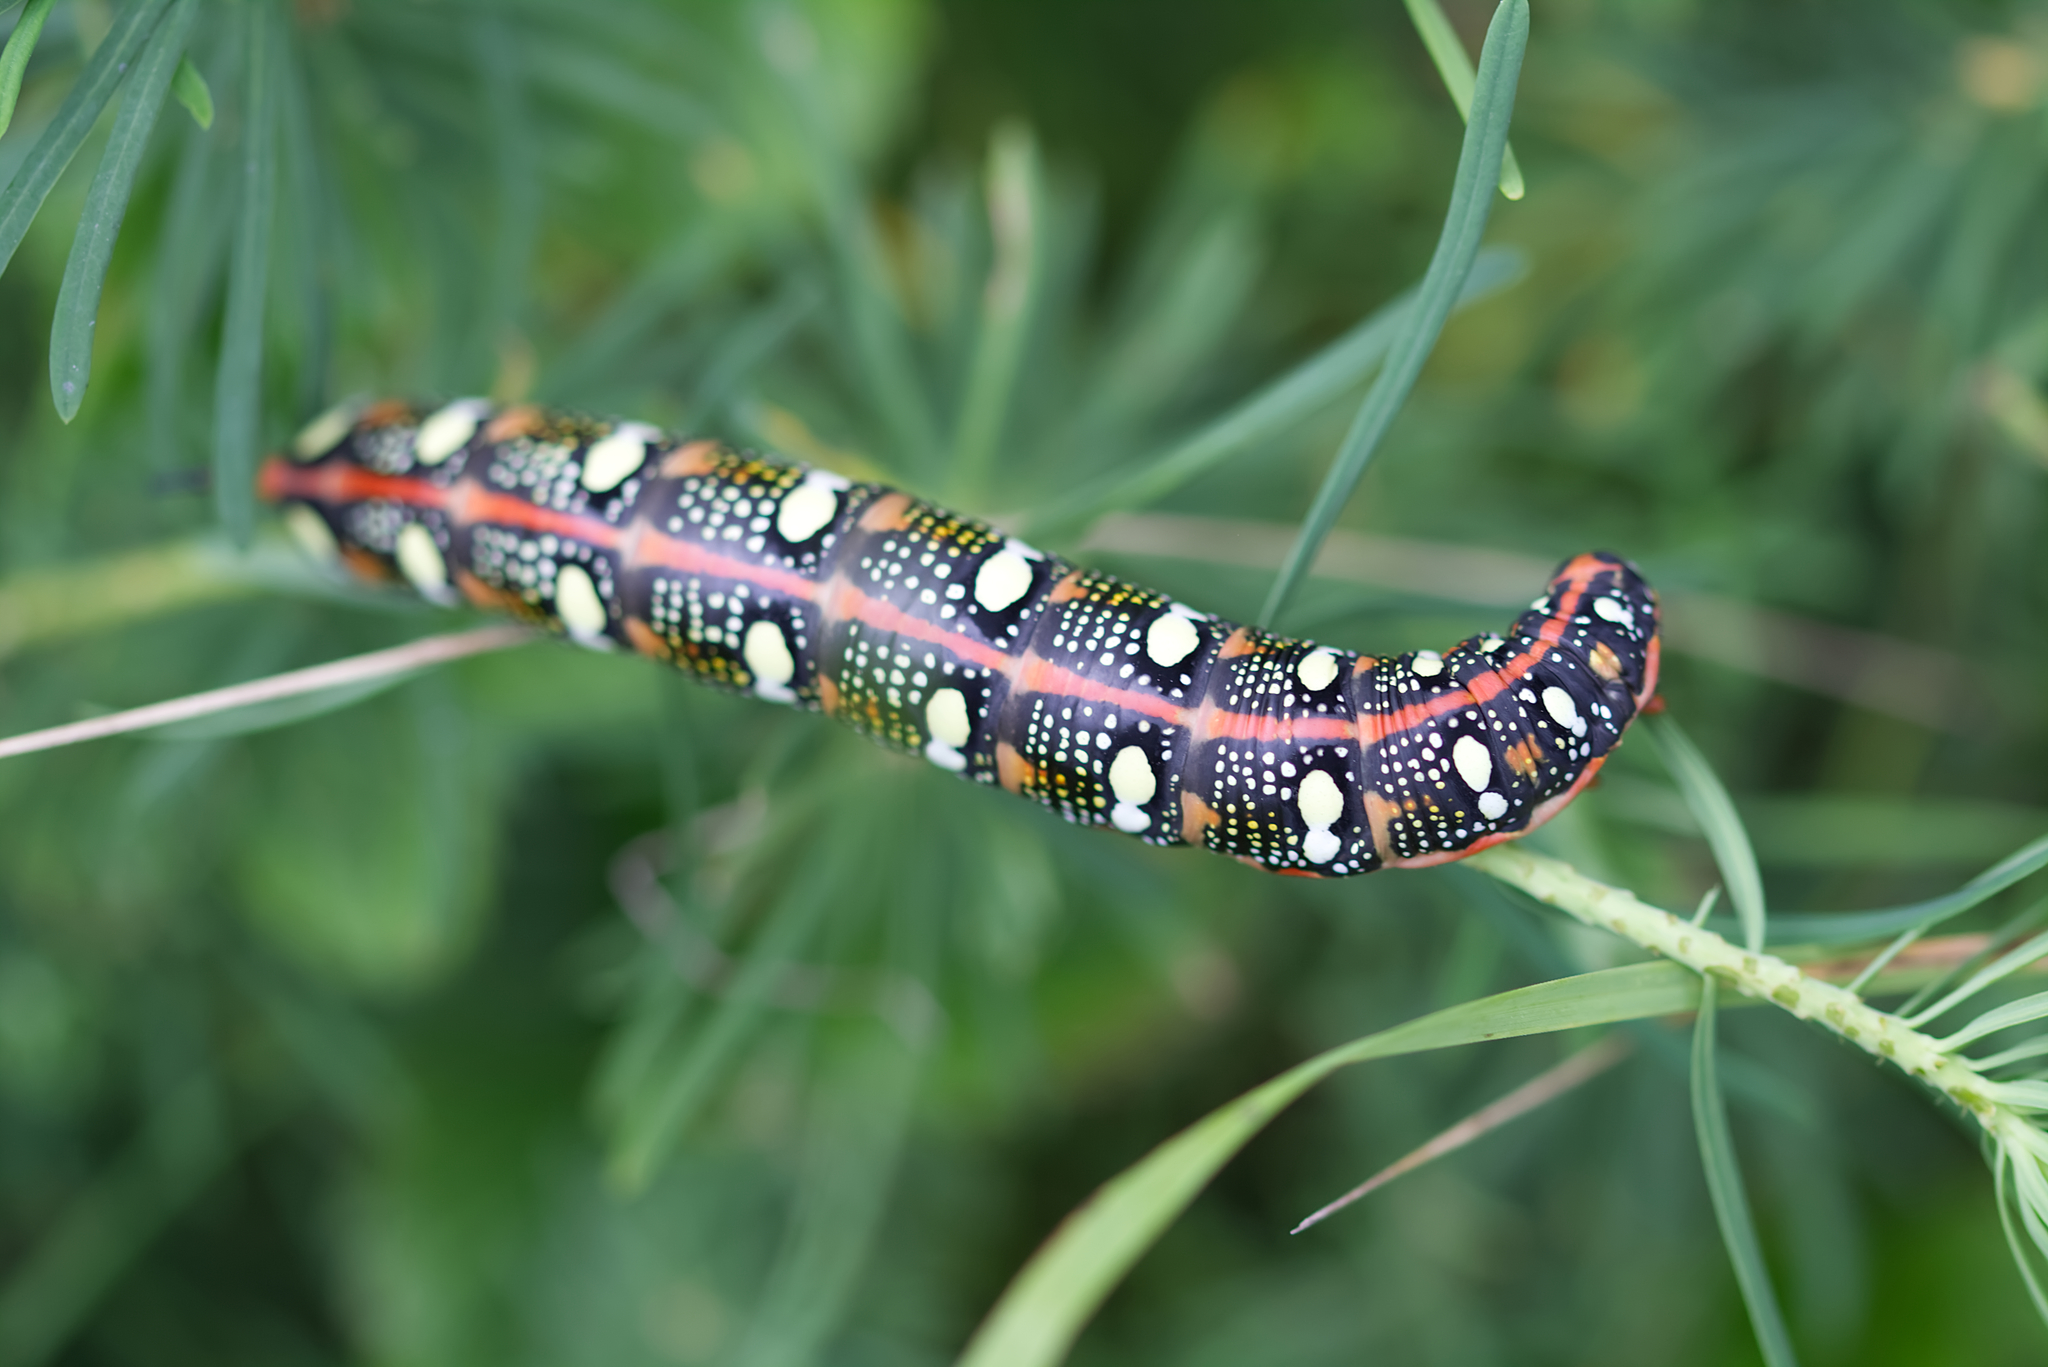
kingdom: Animalia
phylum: Arthropoda
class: Insecta
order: Lepidoptera
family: Sphingidae
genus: Hyles
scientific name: Hyles euphorbiae
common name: Spurge hawk-moth
